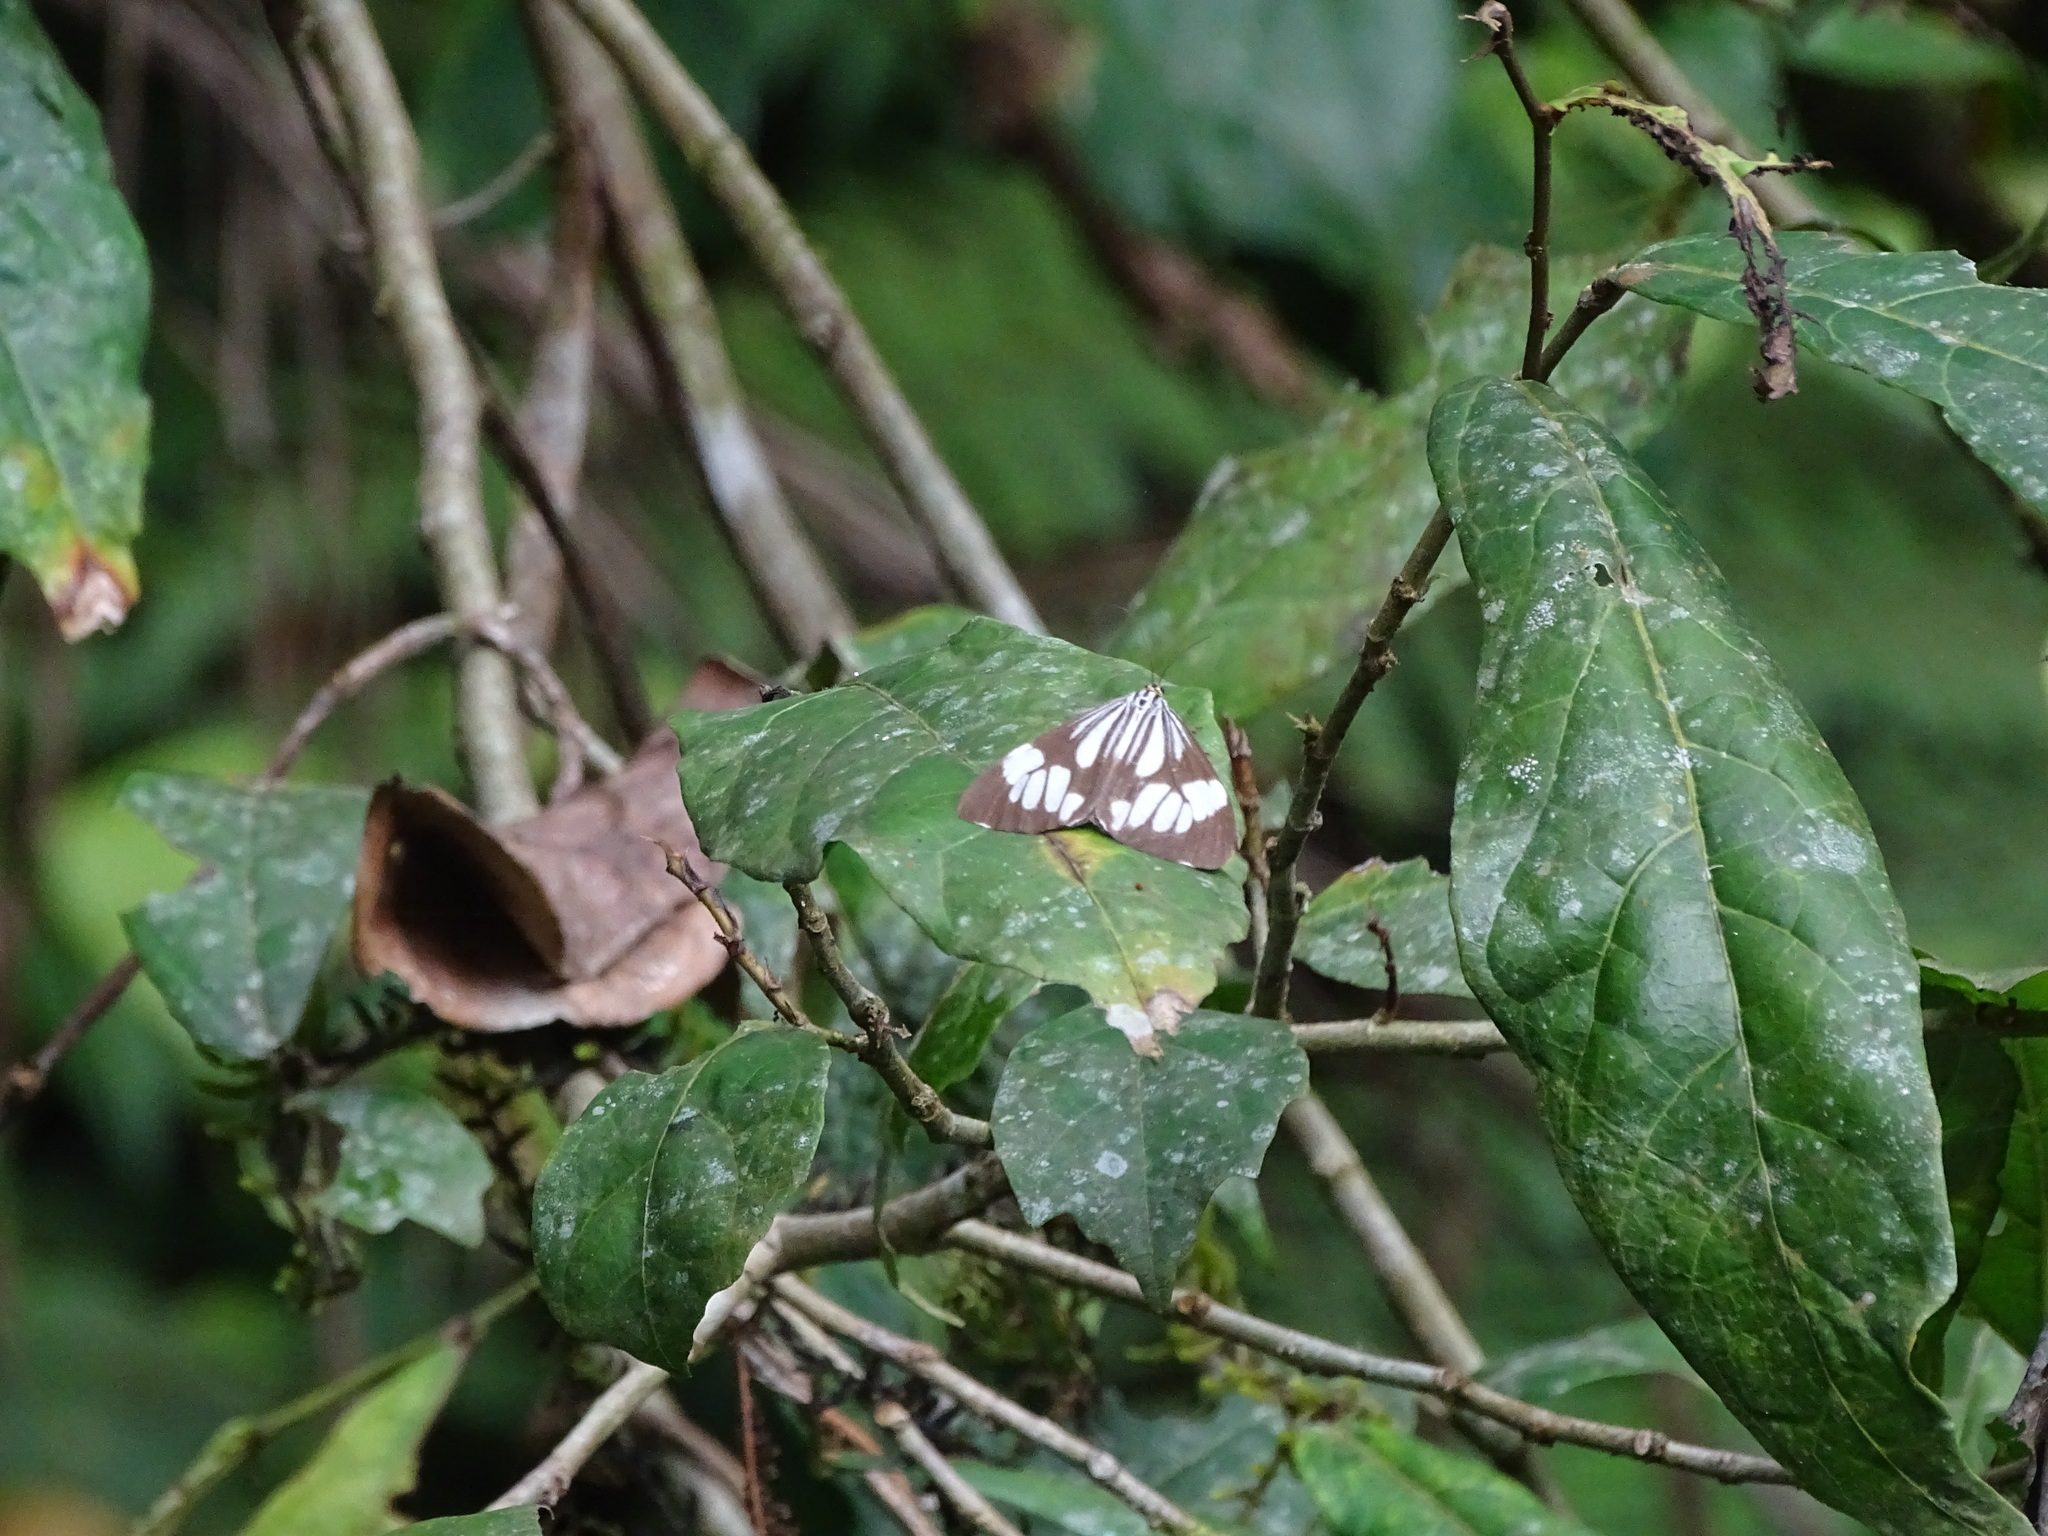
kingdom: Animalia
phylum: Arthropoda
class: Insecta
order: Lepidoptera
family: Erebidae
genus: Nyctemera
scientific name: Nyctemera coleta
